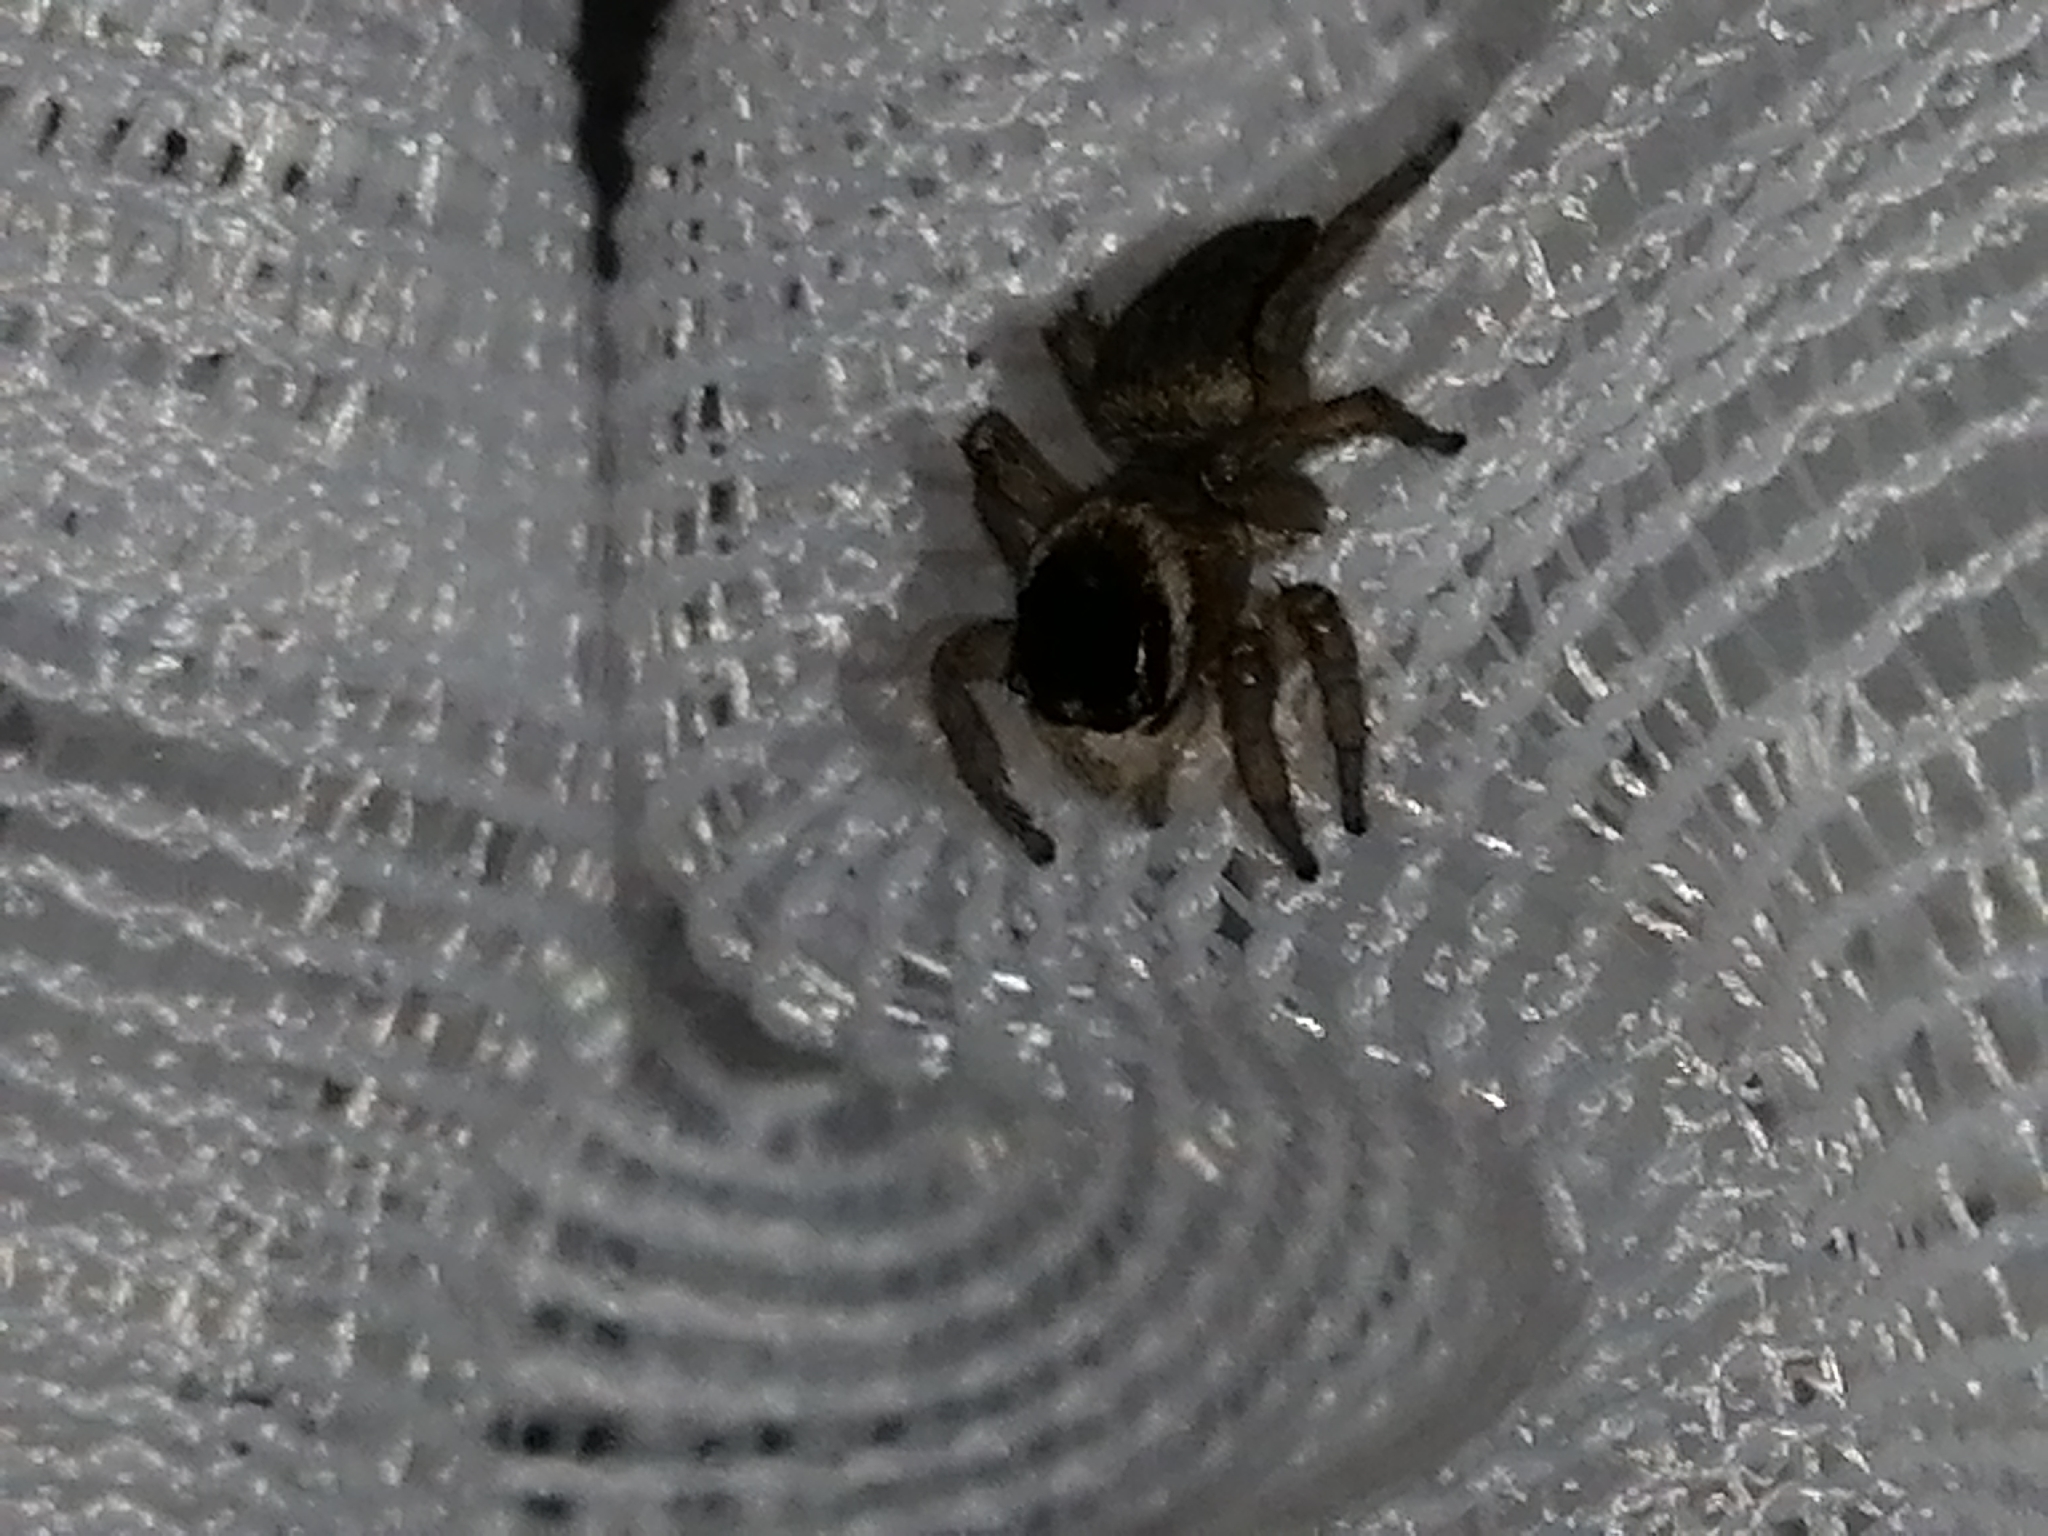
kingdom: Animalia
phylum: Arthropoda
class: Arachnida
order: Araneae
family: Salticidae
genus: Maratus
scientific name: Maratus griseus
